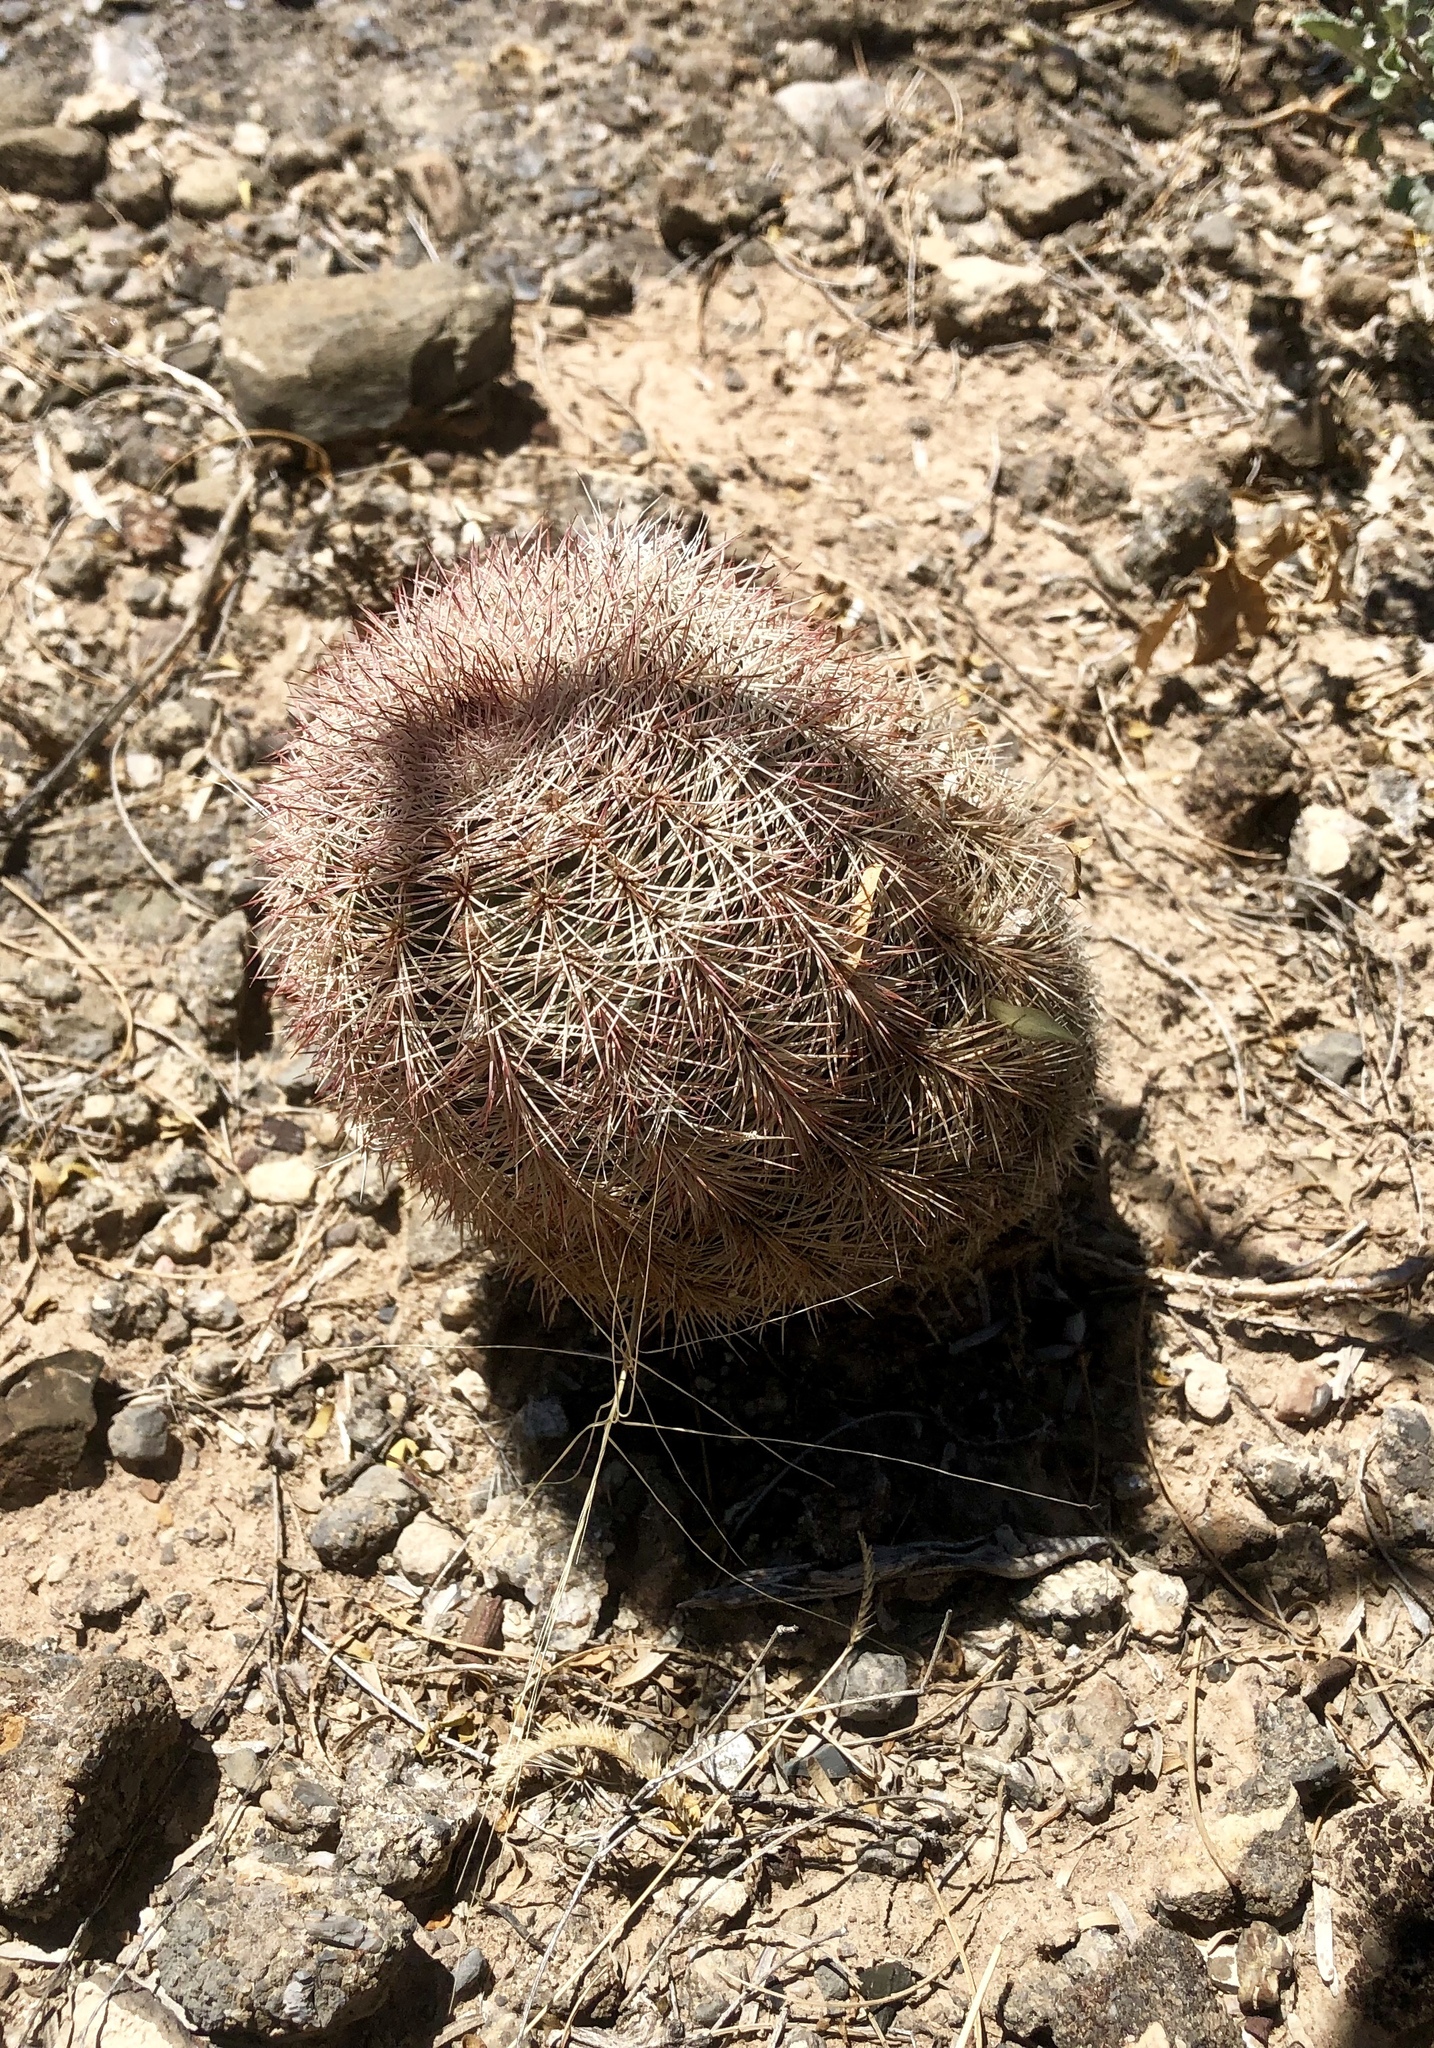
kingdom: Plantae
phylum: Tracheophyta
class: Magnoliopsida
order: Caryophyllales
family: Cactaceae
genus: Echinocereus
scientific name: Echinocereus dasyacanthus
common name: Spiny hedgehog cactus
